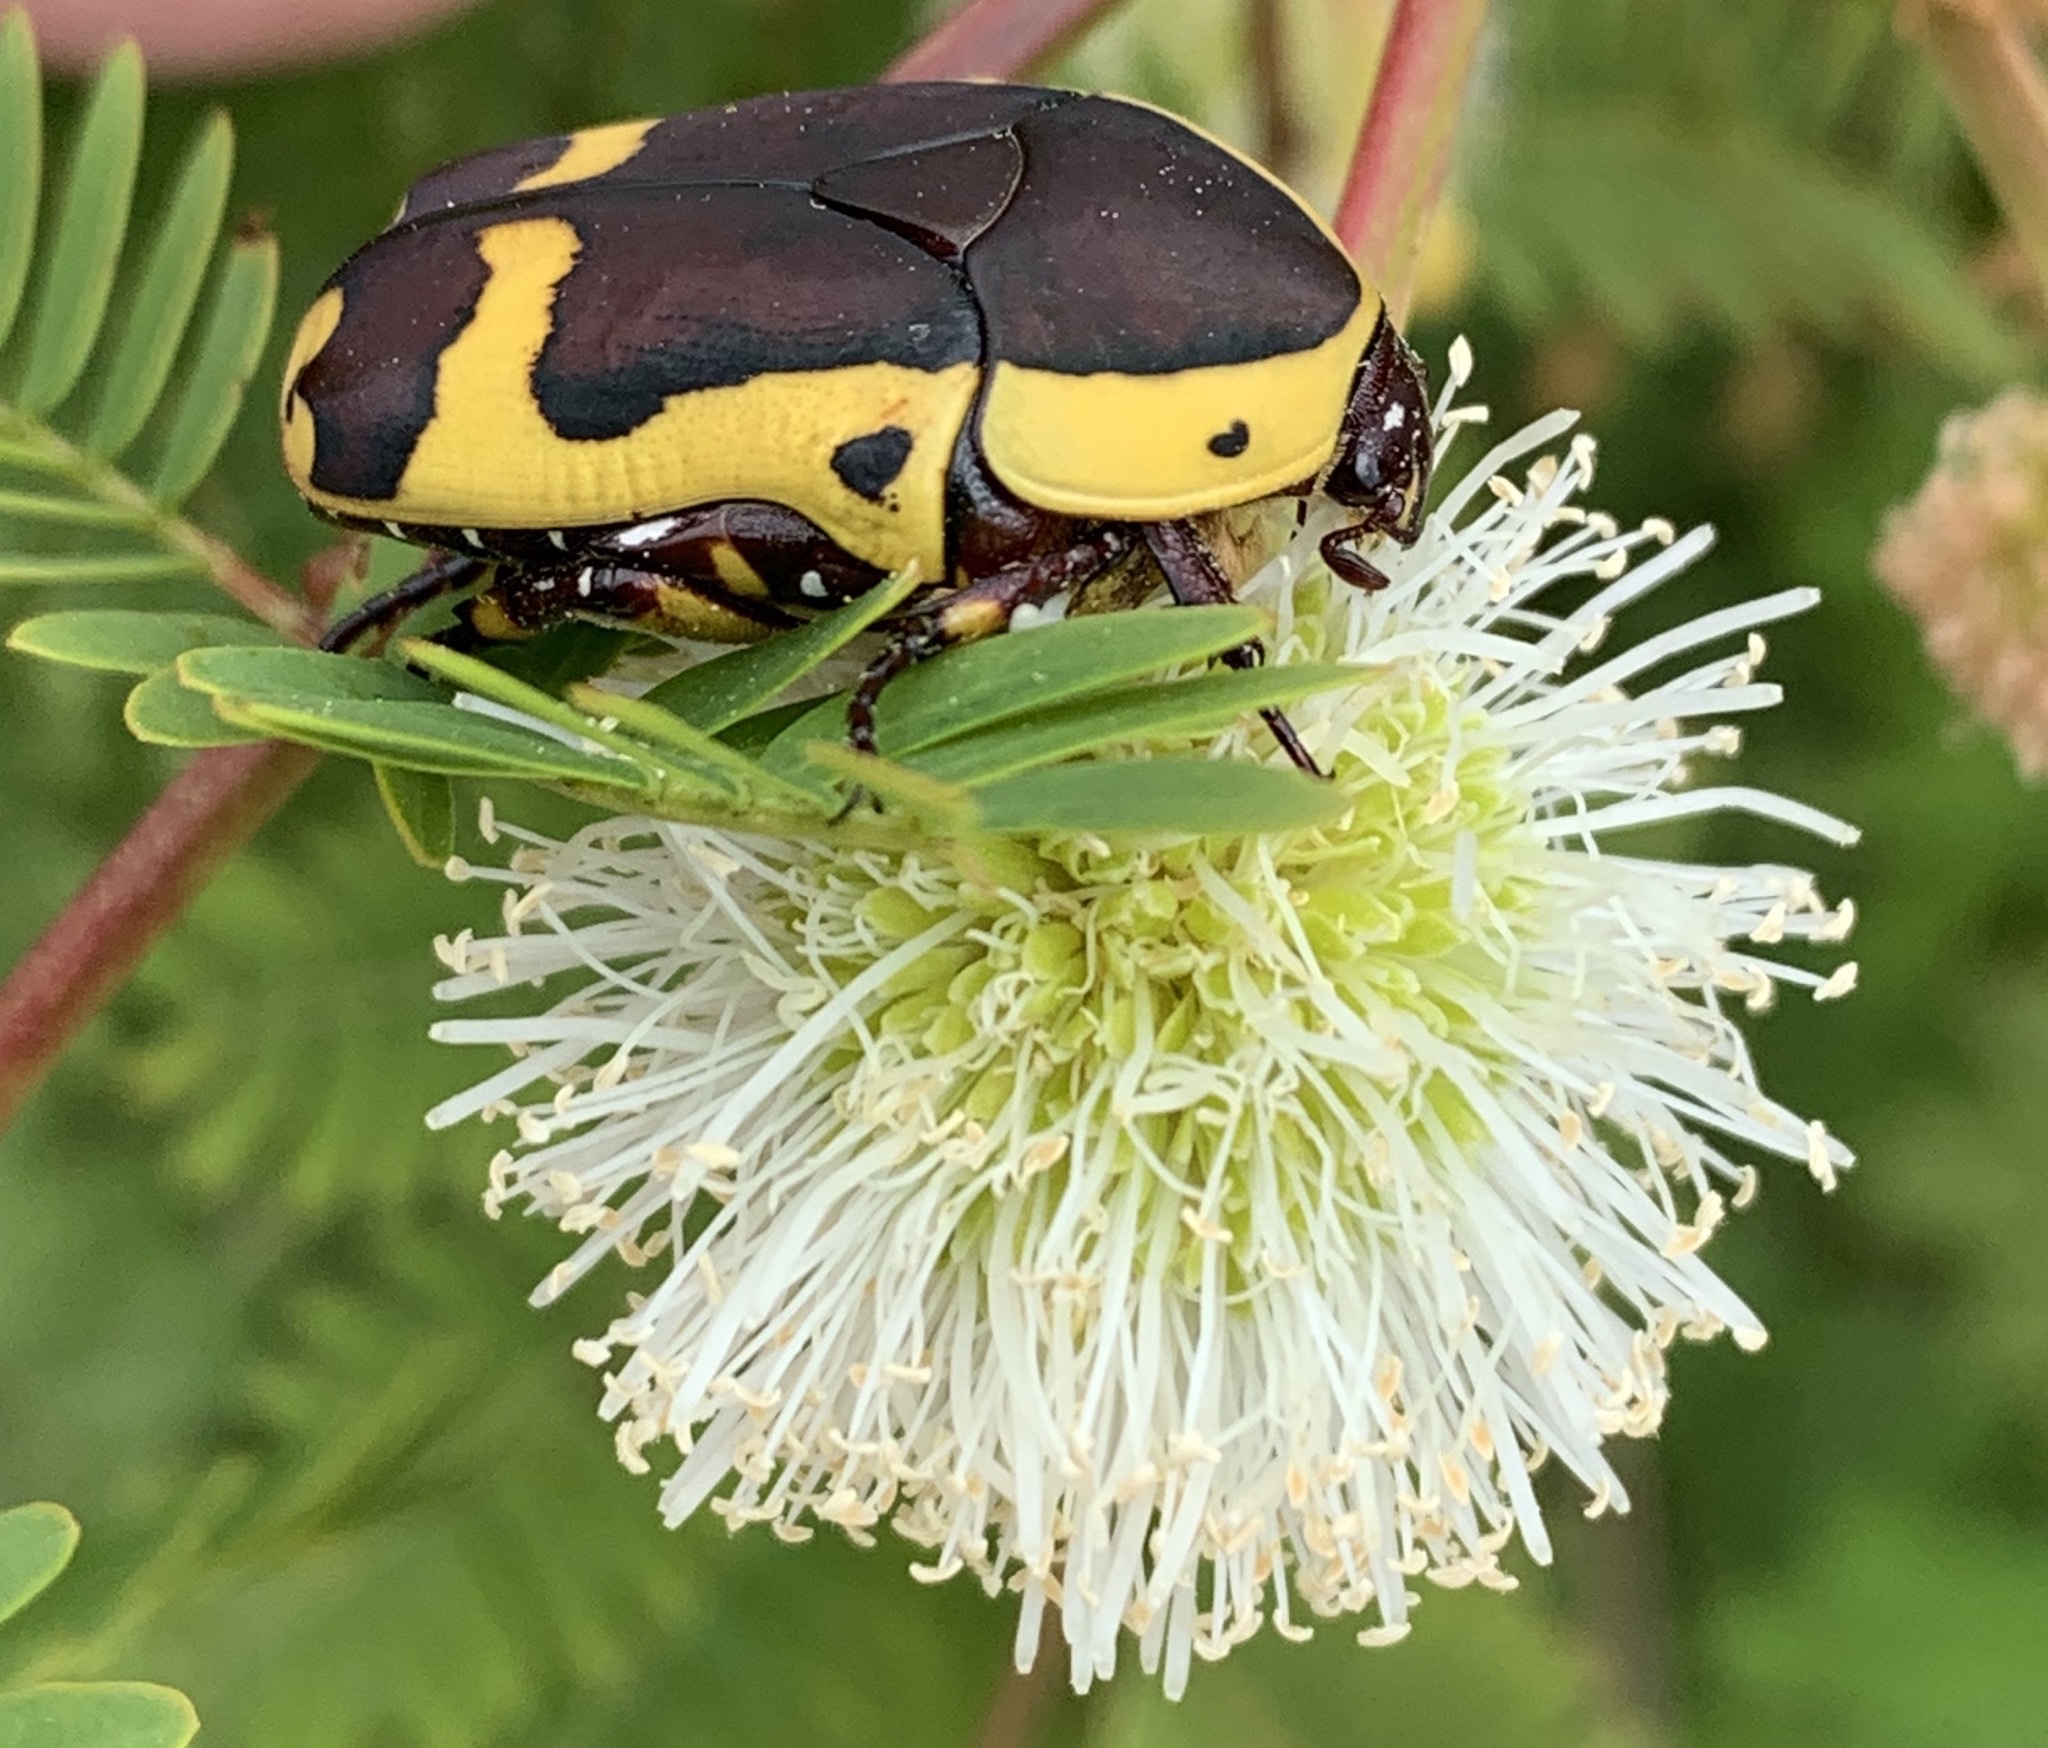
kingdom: Animalia
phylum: Arthropoda
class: Insecta
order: Coleoptera
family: Scarabaeidae
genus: Pachnoda
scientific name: Pachnoda sinuata
